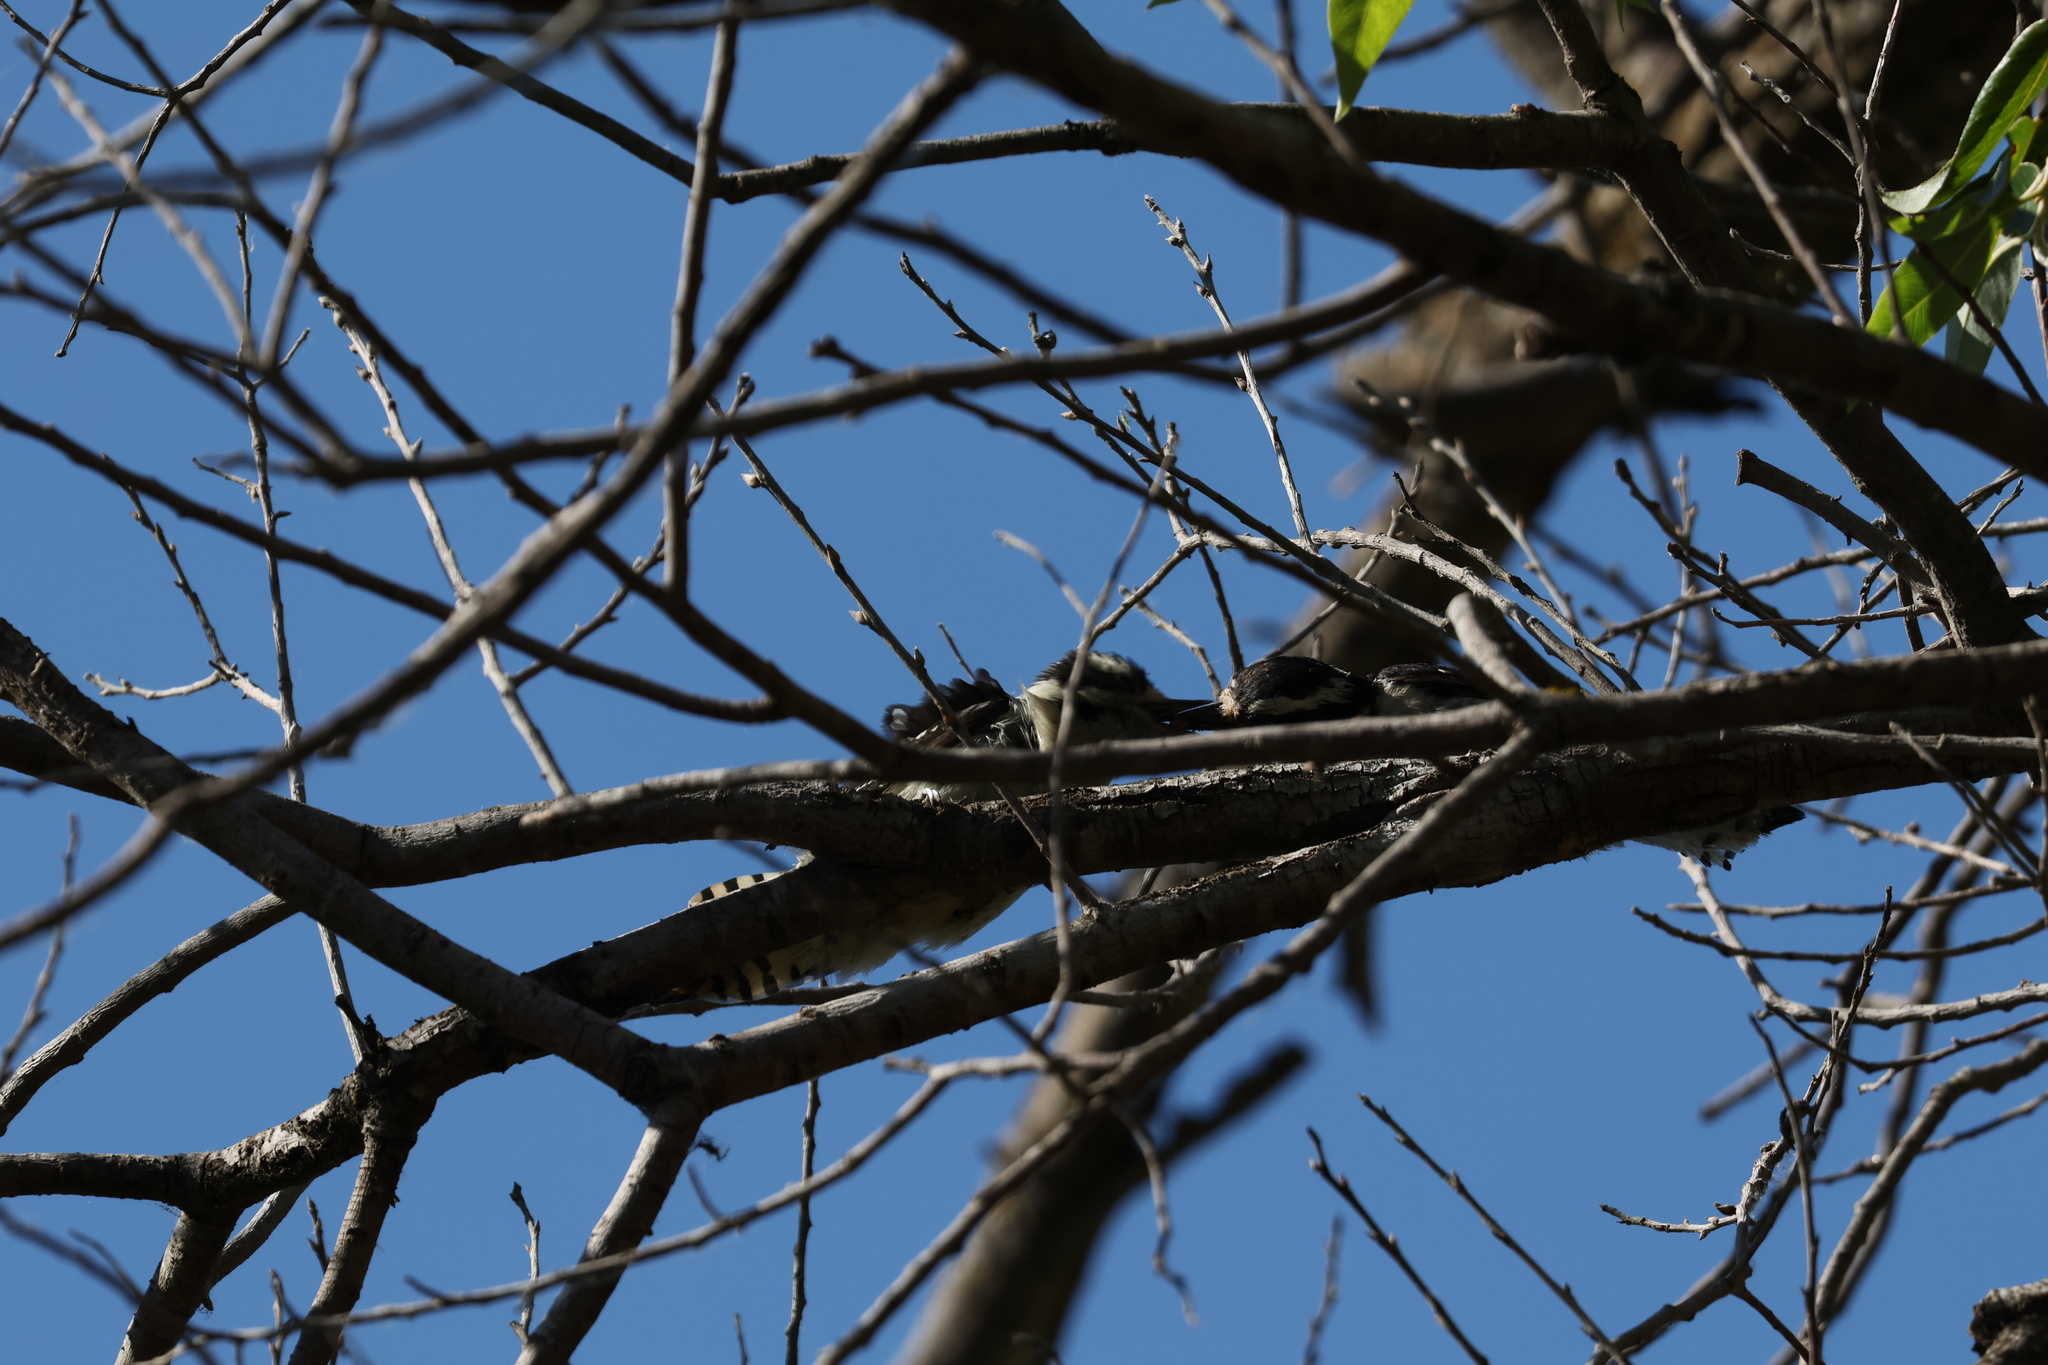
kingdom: Animalia
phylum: Chordata
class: Aves
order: Piciformes
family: Picidae
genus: Dryobates
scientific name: Dryobates pubescens
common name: Downy woodpecker
